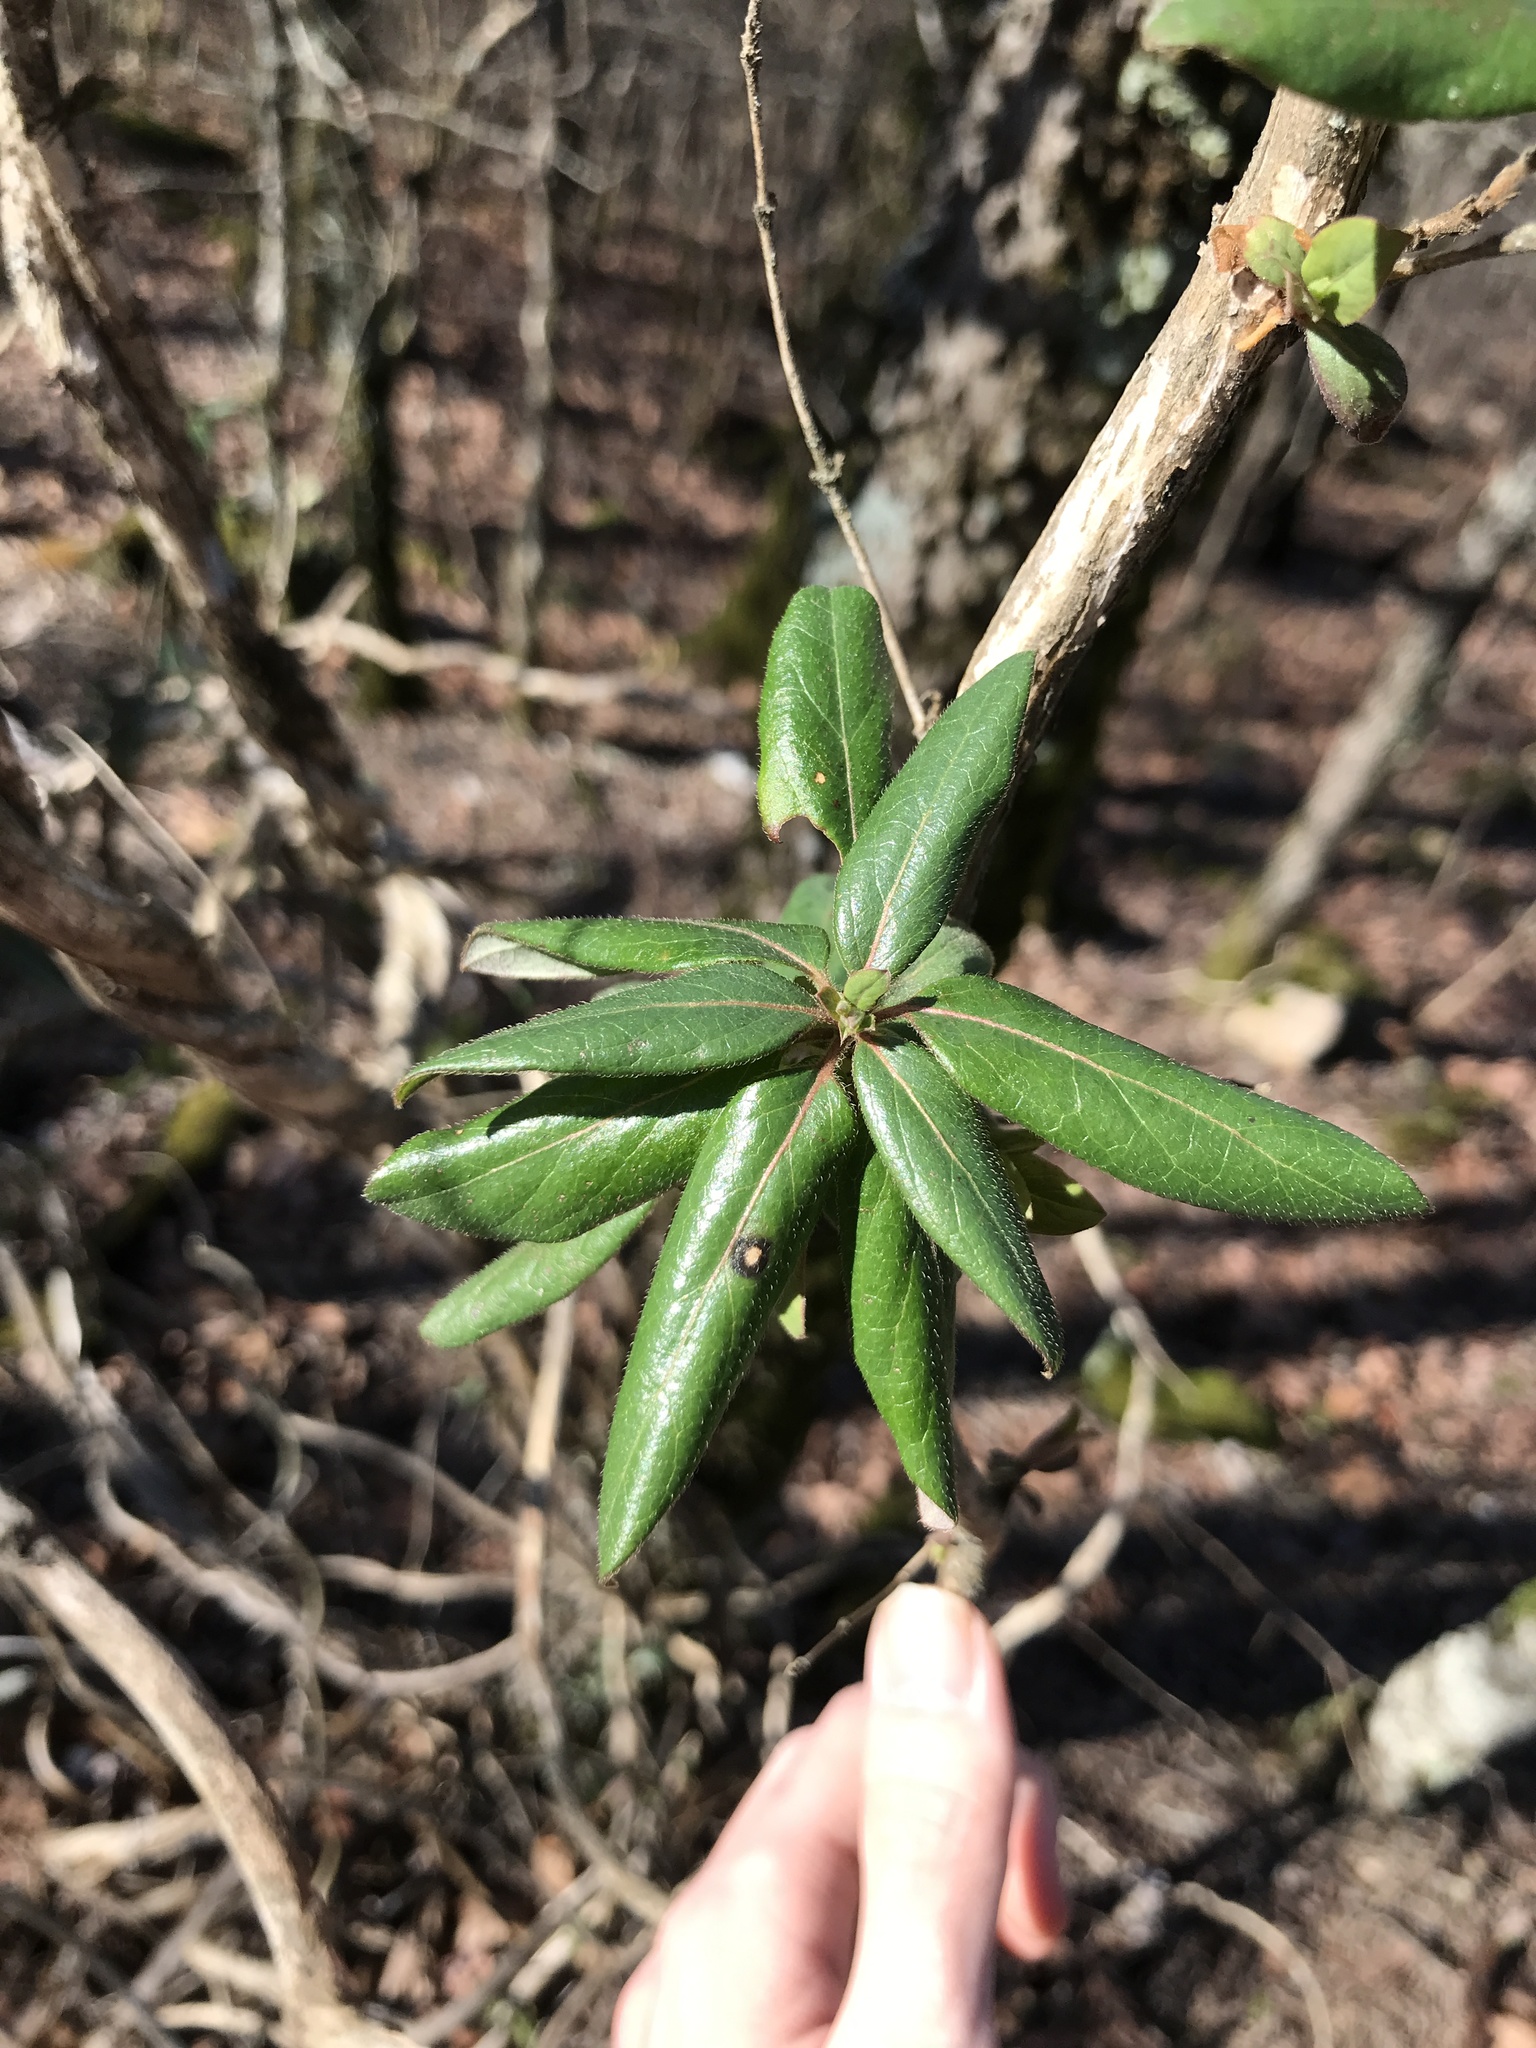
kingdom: Plantae
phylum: Tracheophyta
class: Magnoliopsida
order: Dipsacales
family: Caprifoliaceae
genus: Lonicera
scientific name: Lonicera japonica
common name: Japanese honeysuckle
